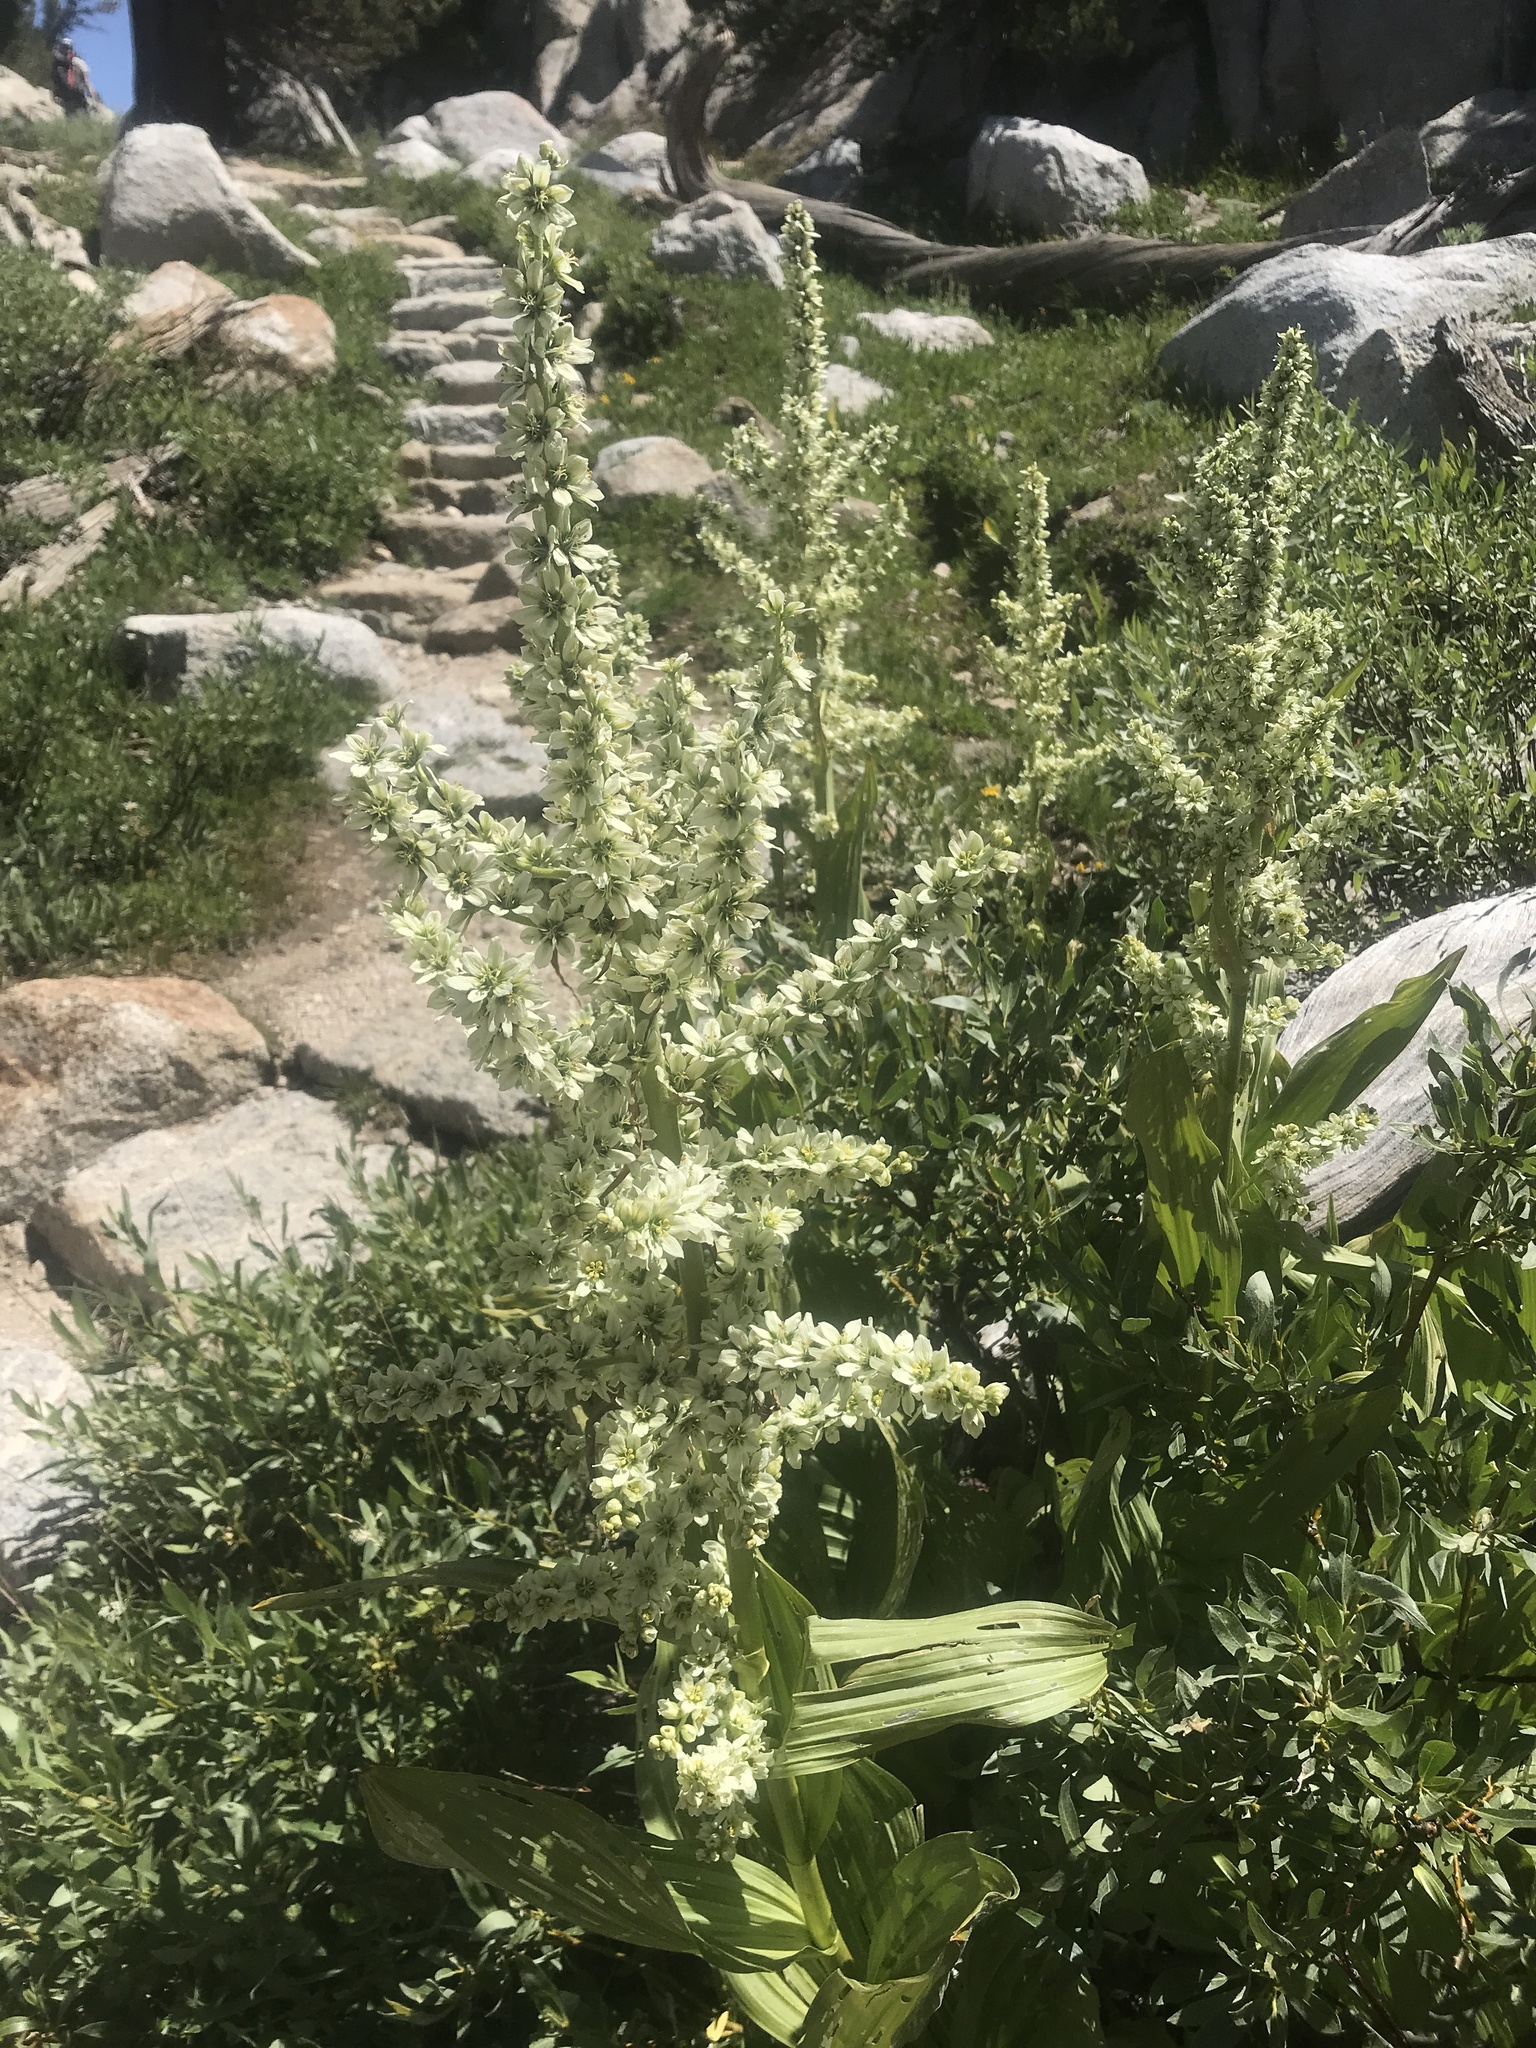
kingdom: Plantae
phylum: Tracheophyta
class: Liliopsida
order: Liliales
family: Melanthiaceae
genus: Veratrum
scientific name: Veratrum californicum
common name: California veratrum
